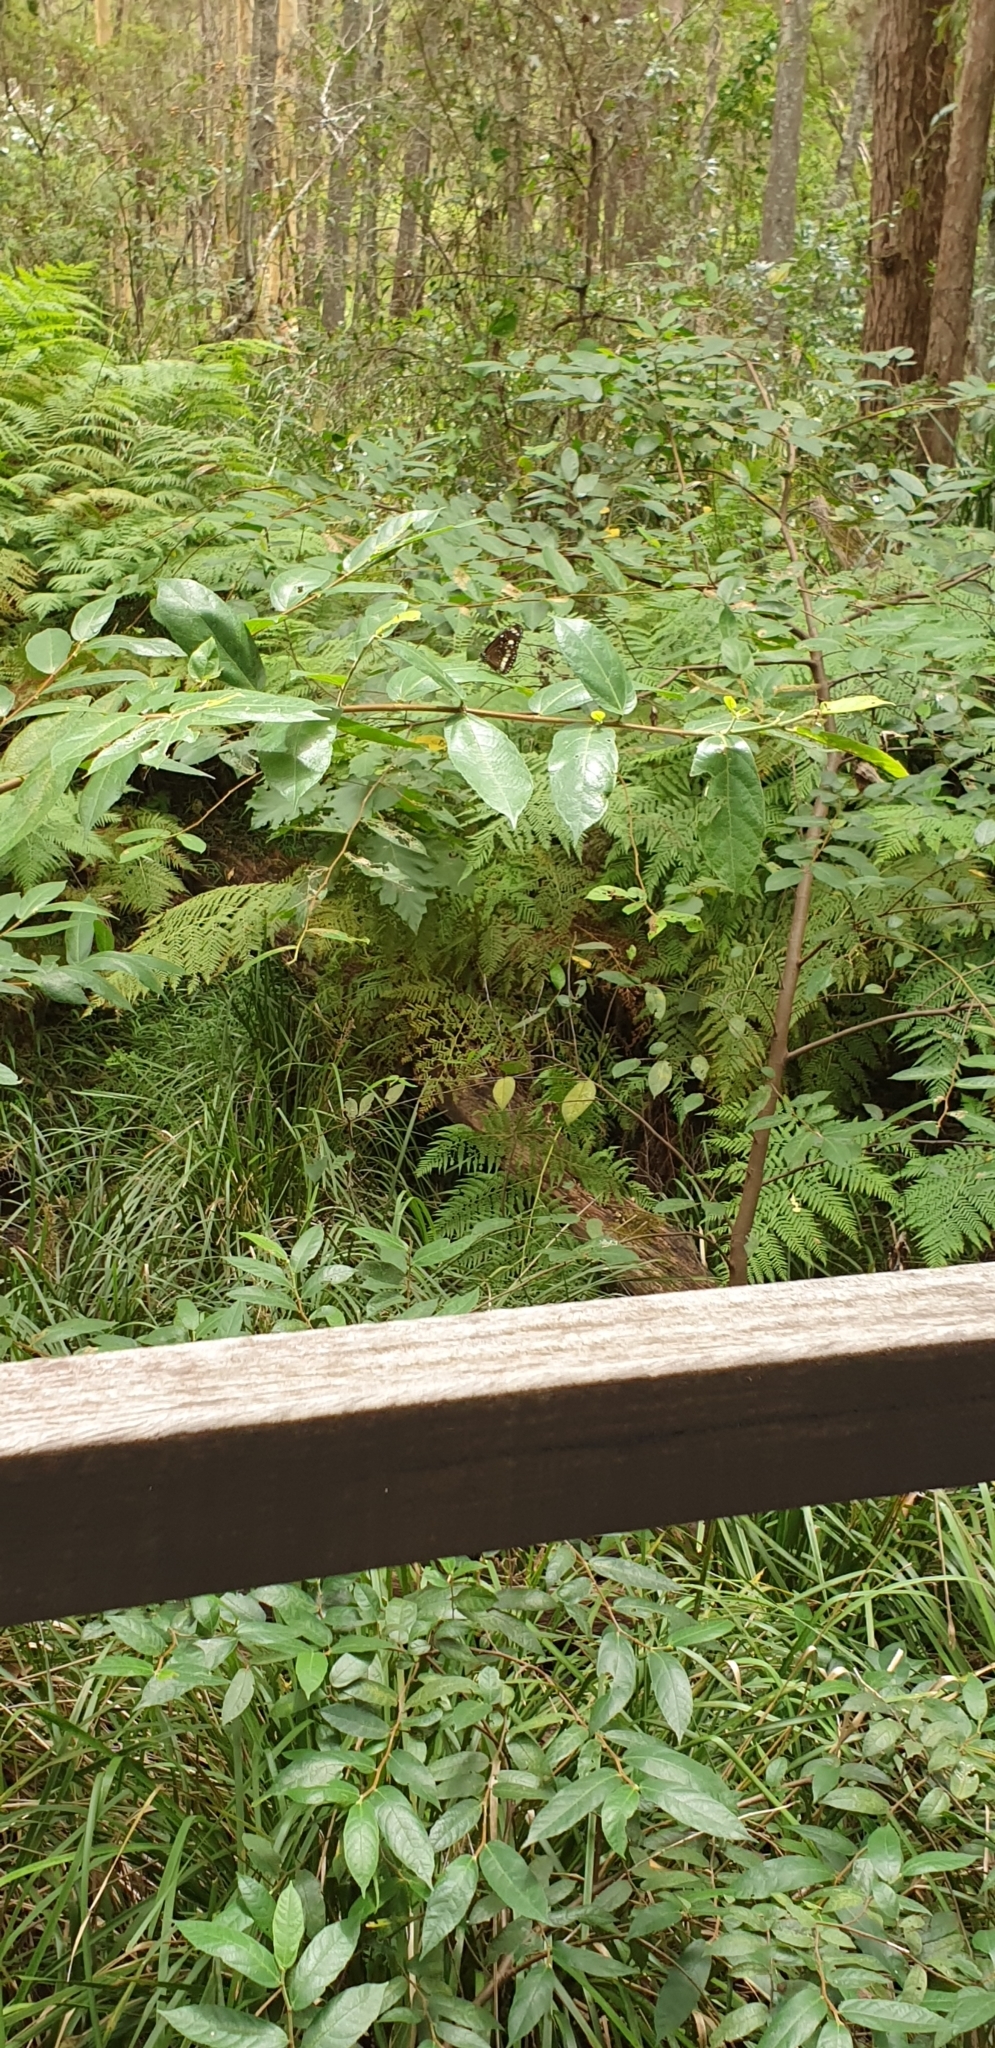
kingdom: Animalia
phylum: Arthropoda
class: Insecta
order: Lepidoptera
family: Nymphalidae
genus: Euploea
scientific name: Euploea core
